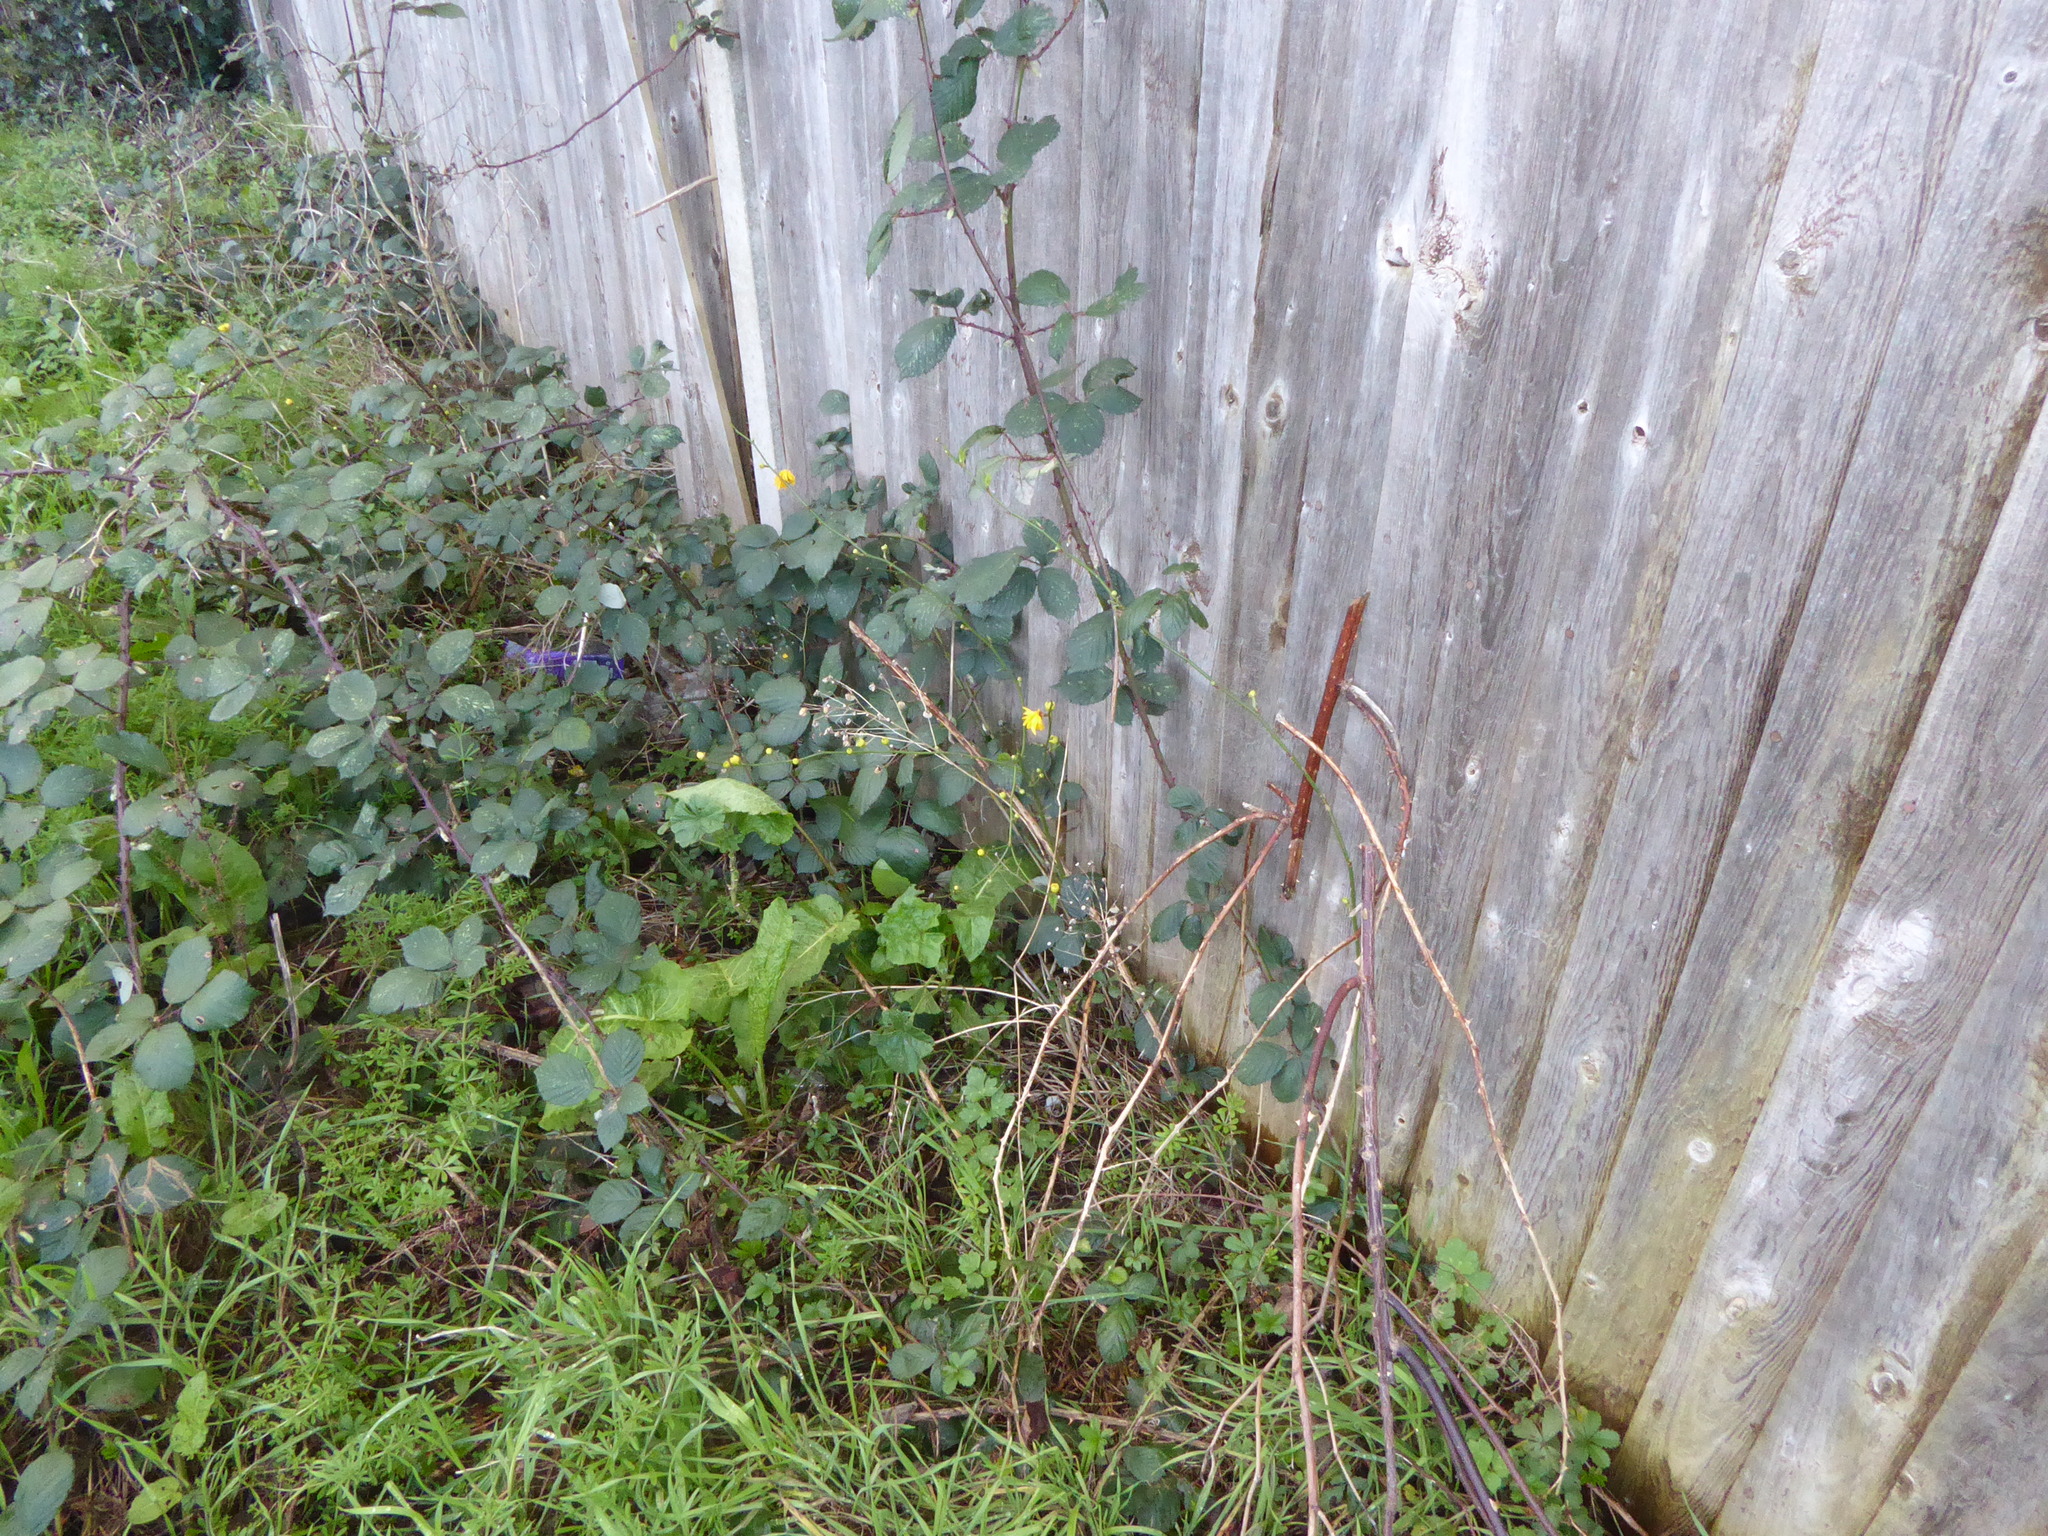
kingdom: Plantae
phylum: Tracheophyta
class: Magnoliopsida
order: Rosales
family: Rosaceae
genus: Kerria
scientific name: Kerria japonica
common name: Japanese kerria
